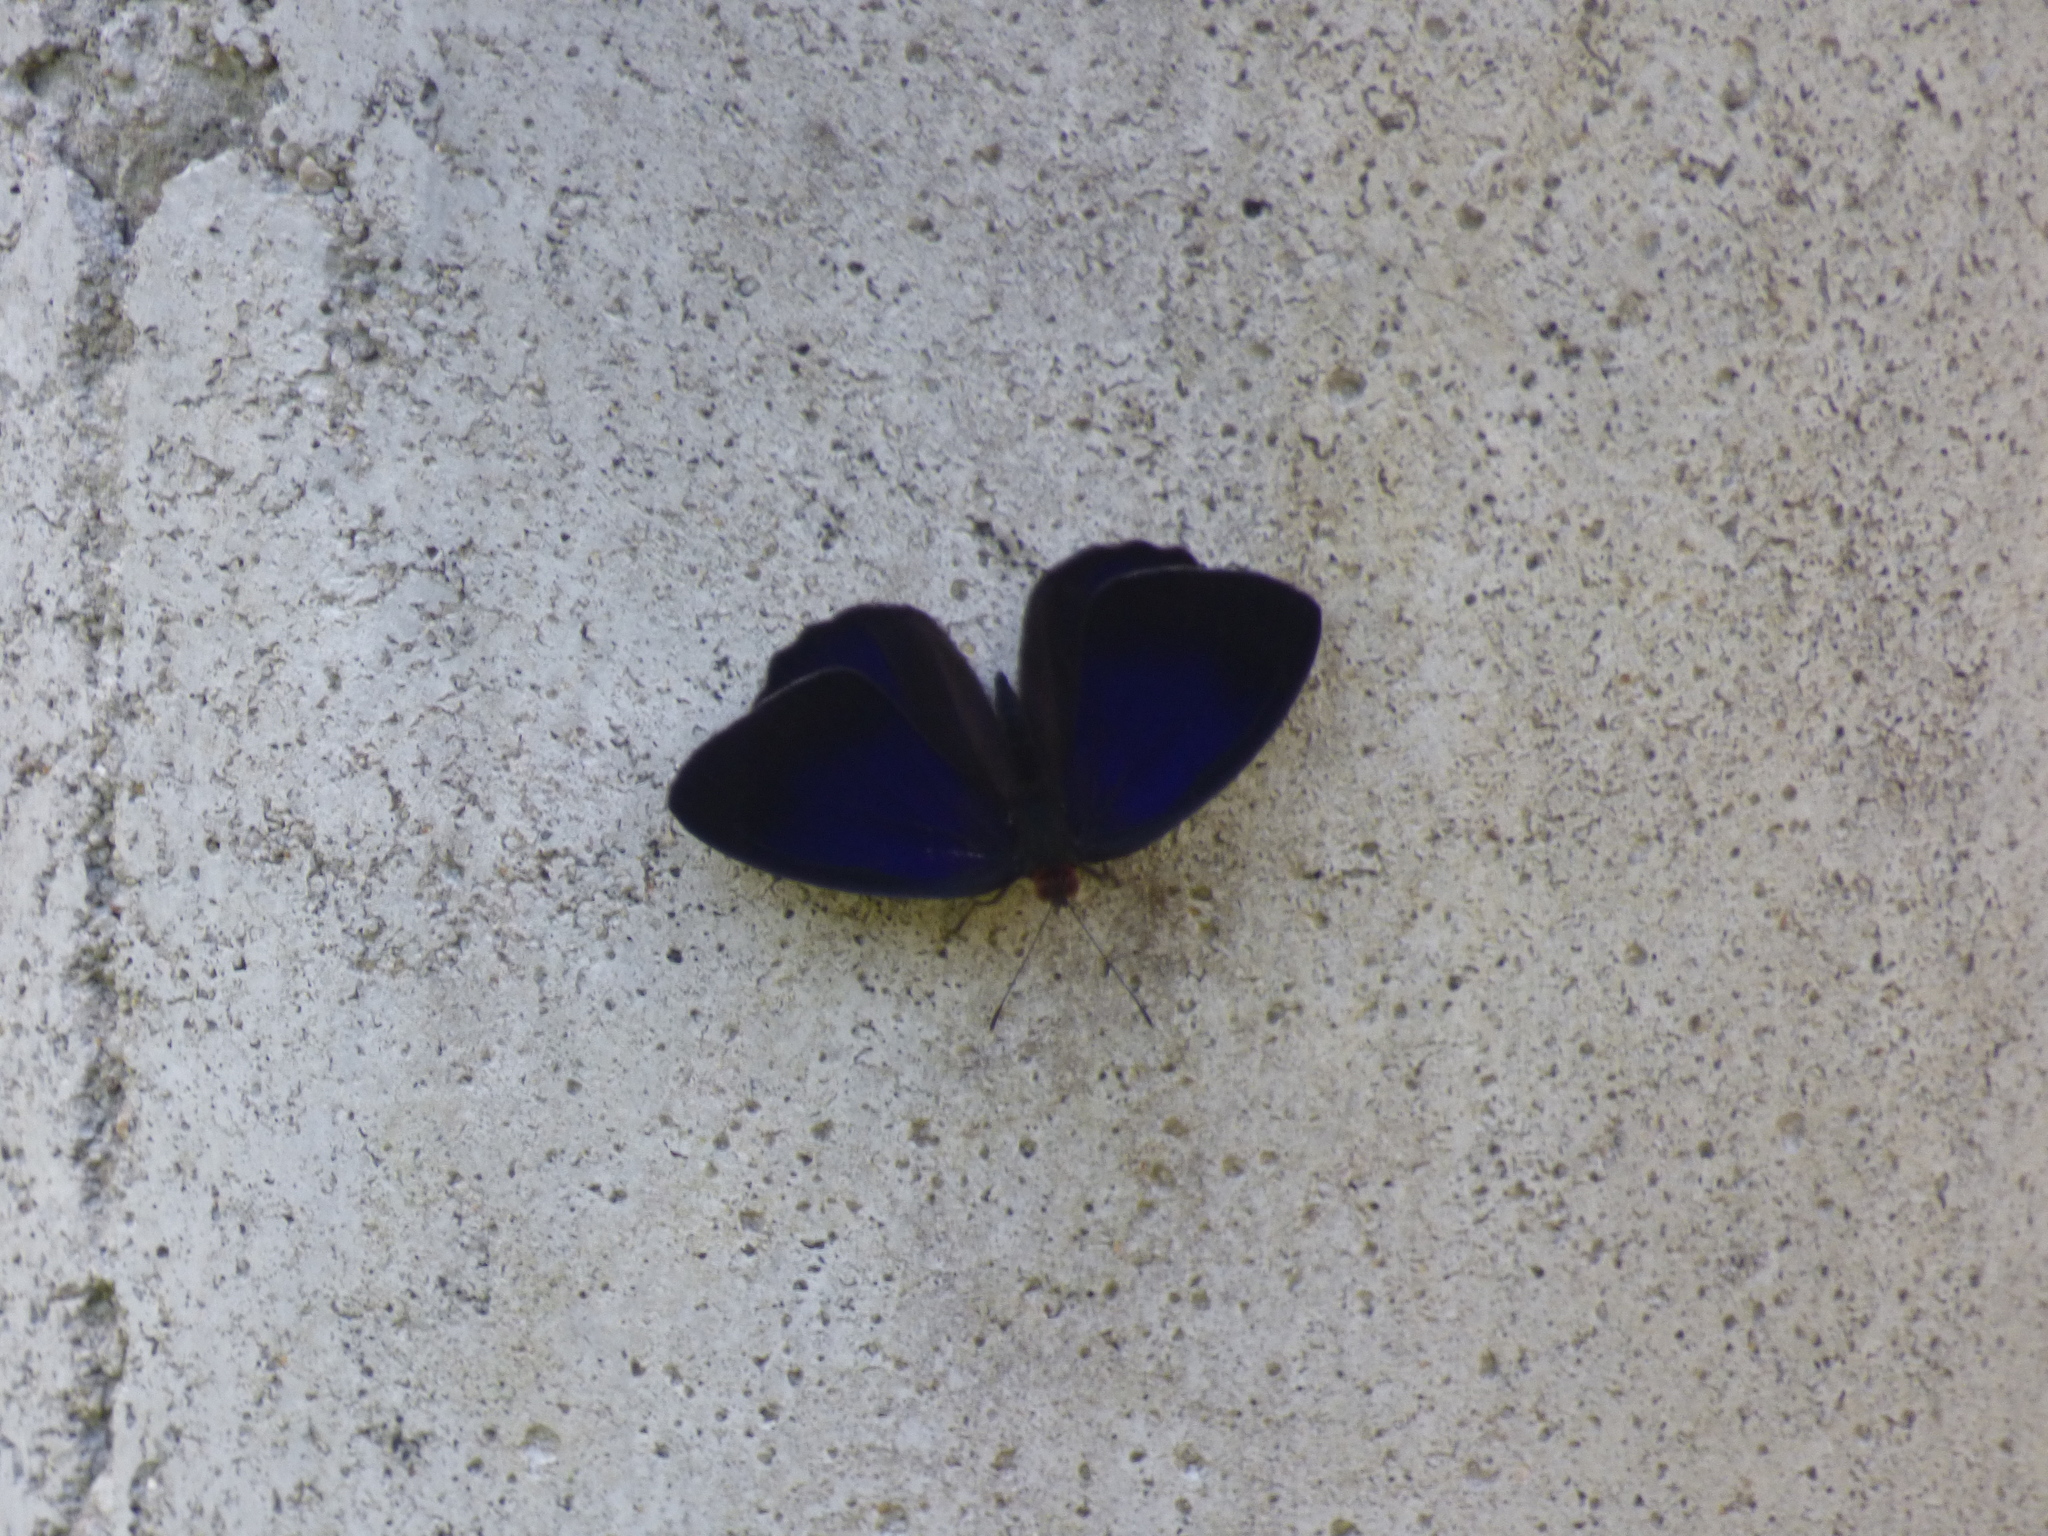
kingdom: Animalia
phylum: Arthropoda
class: Insecta
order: Lepidoptera
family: Nymphalidae
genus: Eunica
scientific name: Eunica alpais
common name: Shining purplewing
